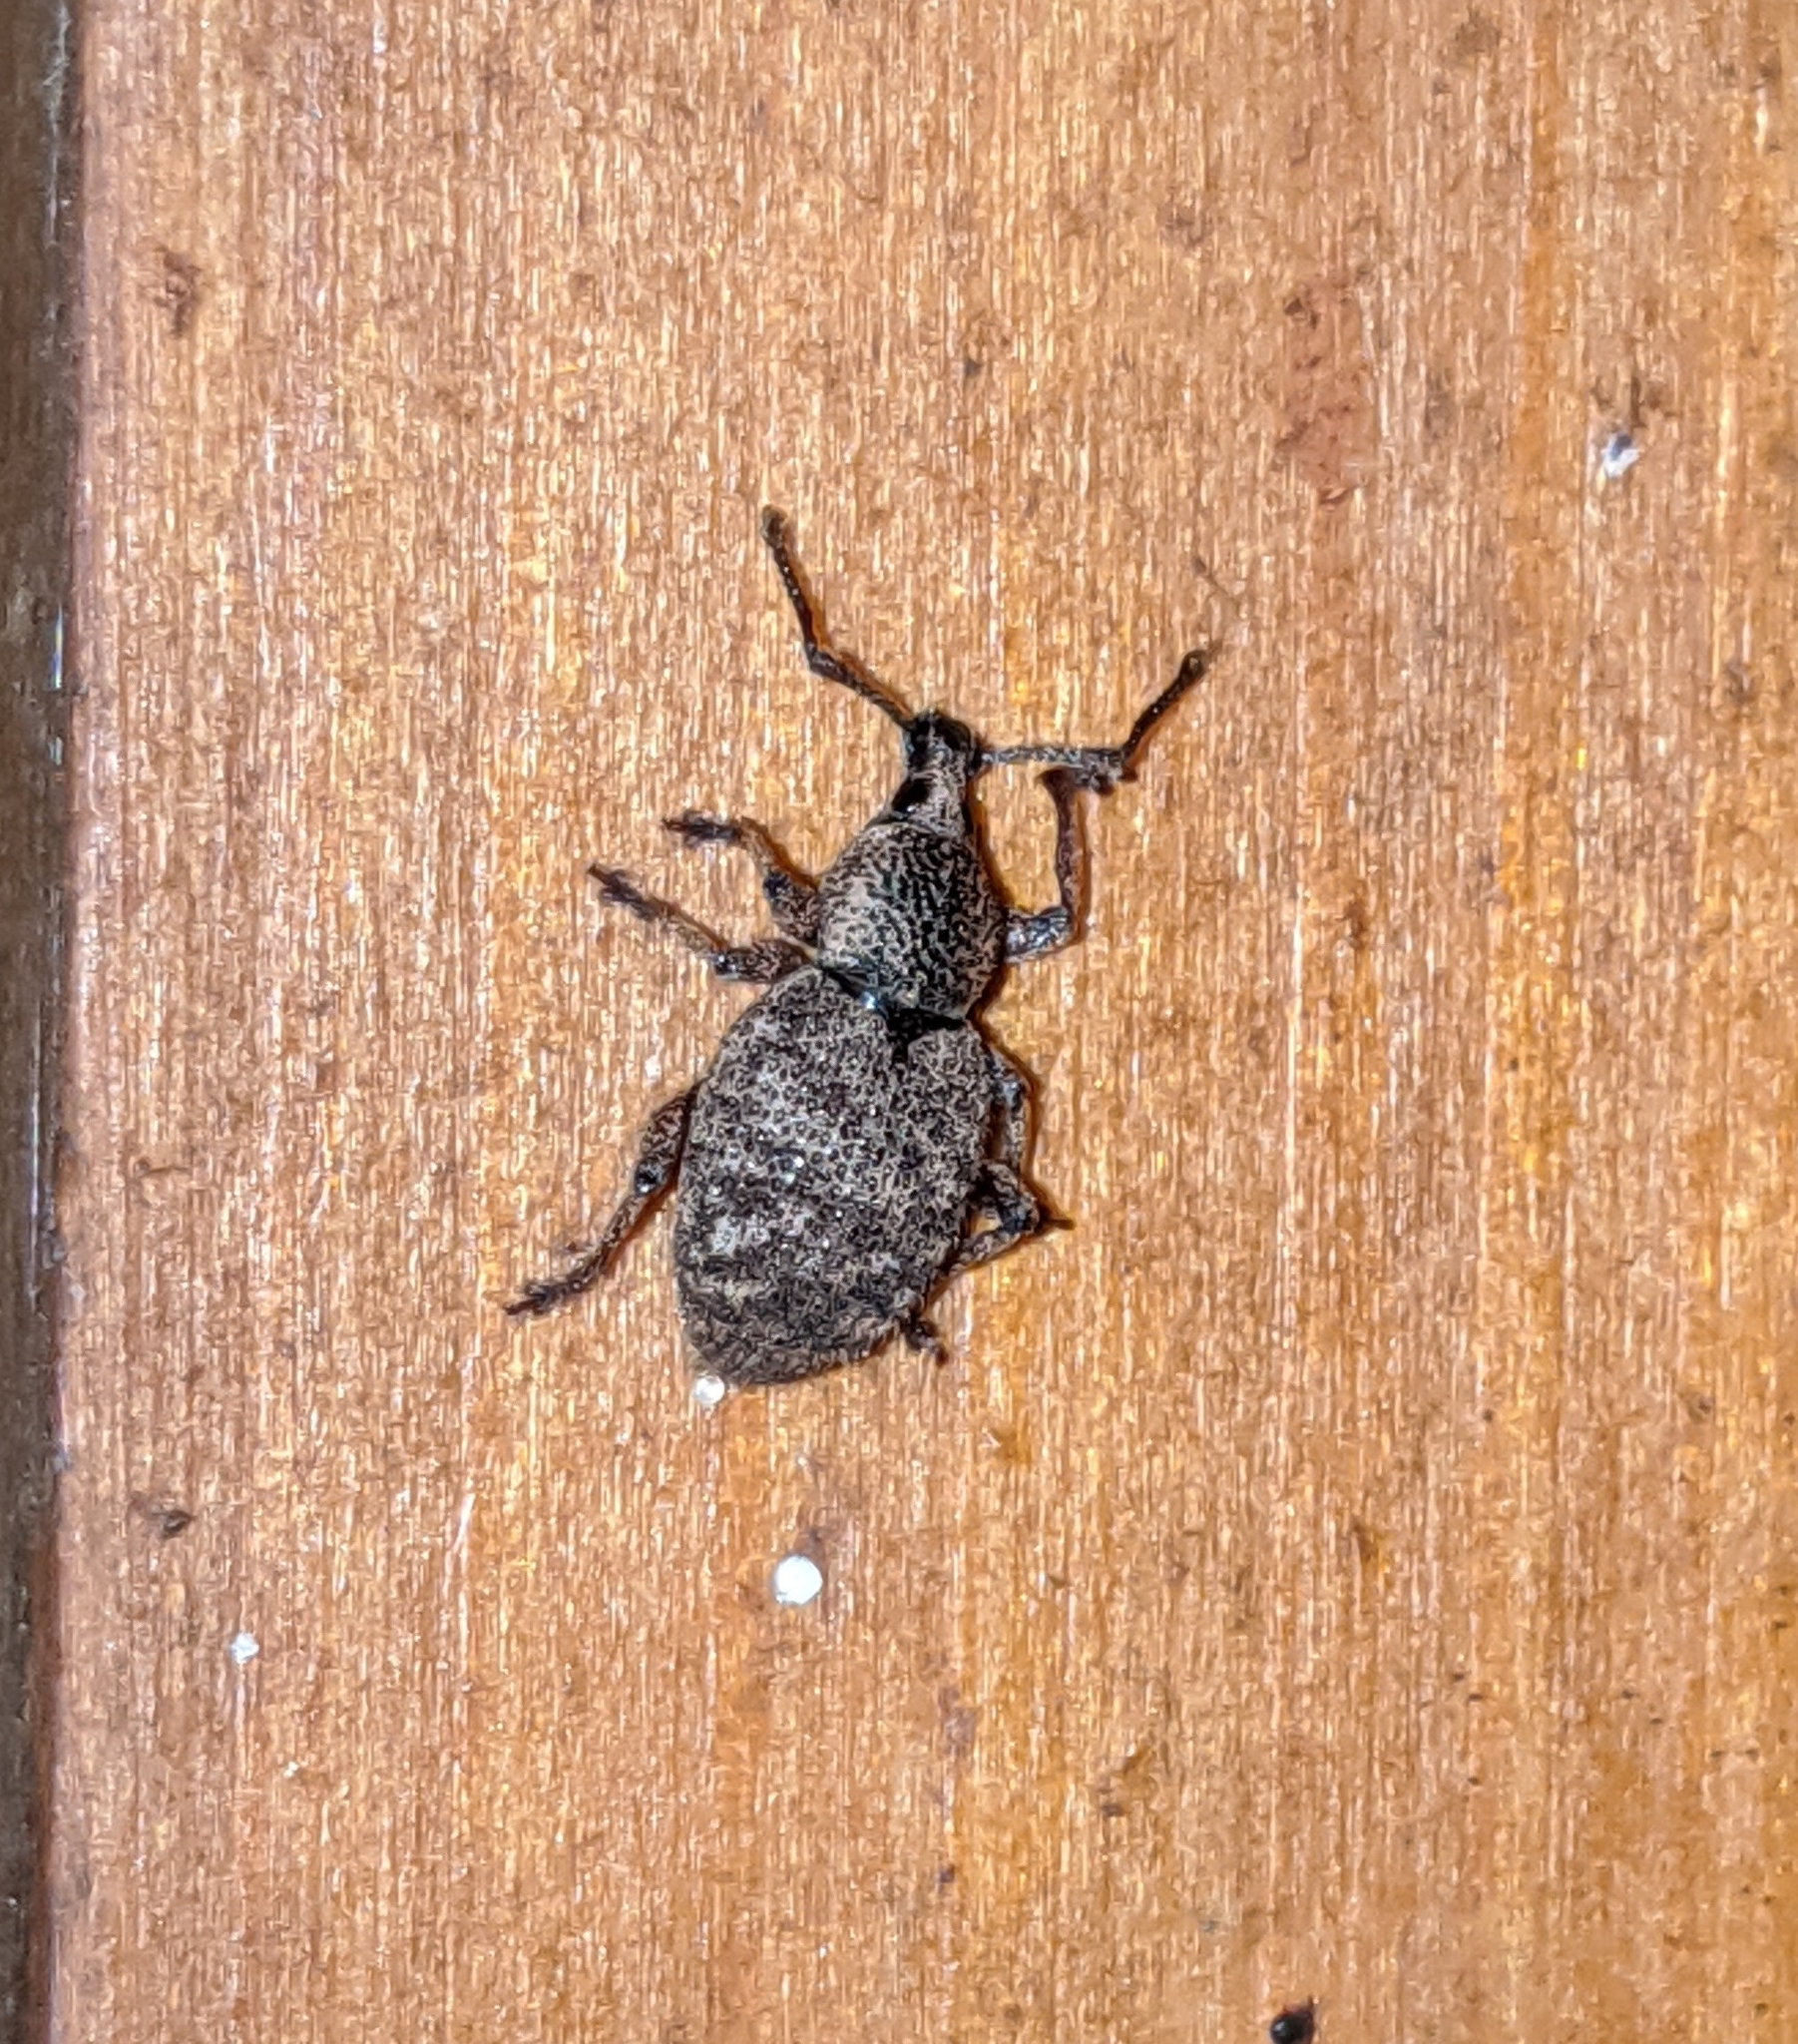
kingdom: Animalia
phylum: Arthropoda
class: Insecta
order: Coleoptera
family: Curculionidae
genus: Otiorhynchus
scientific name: Otiorhynchus singularis
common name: Clay-coloured weevil
